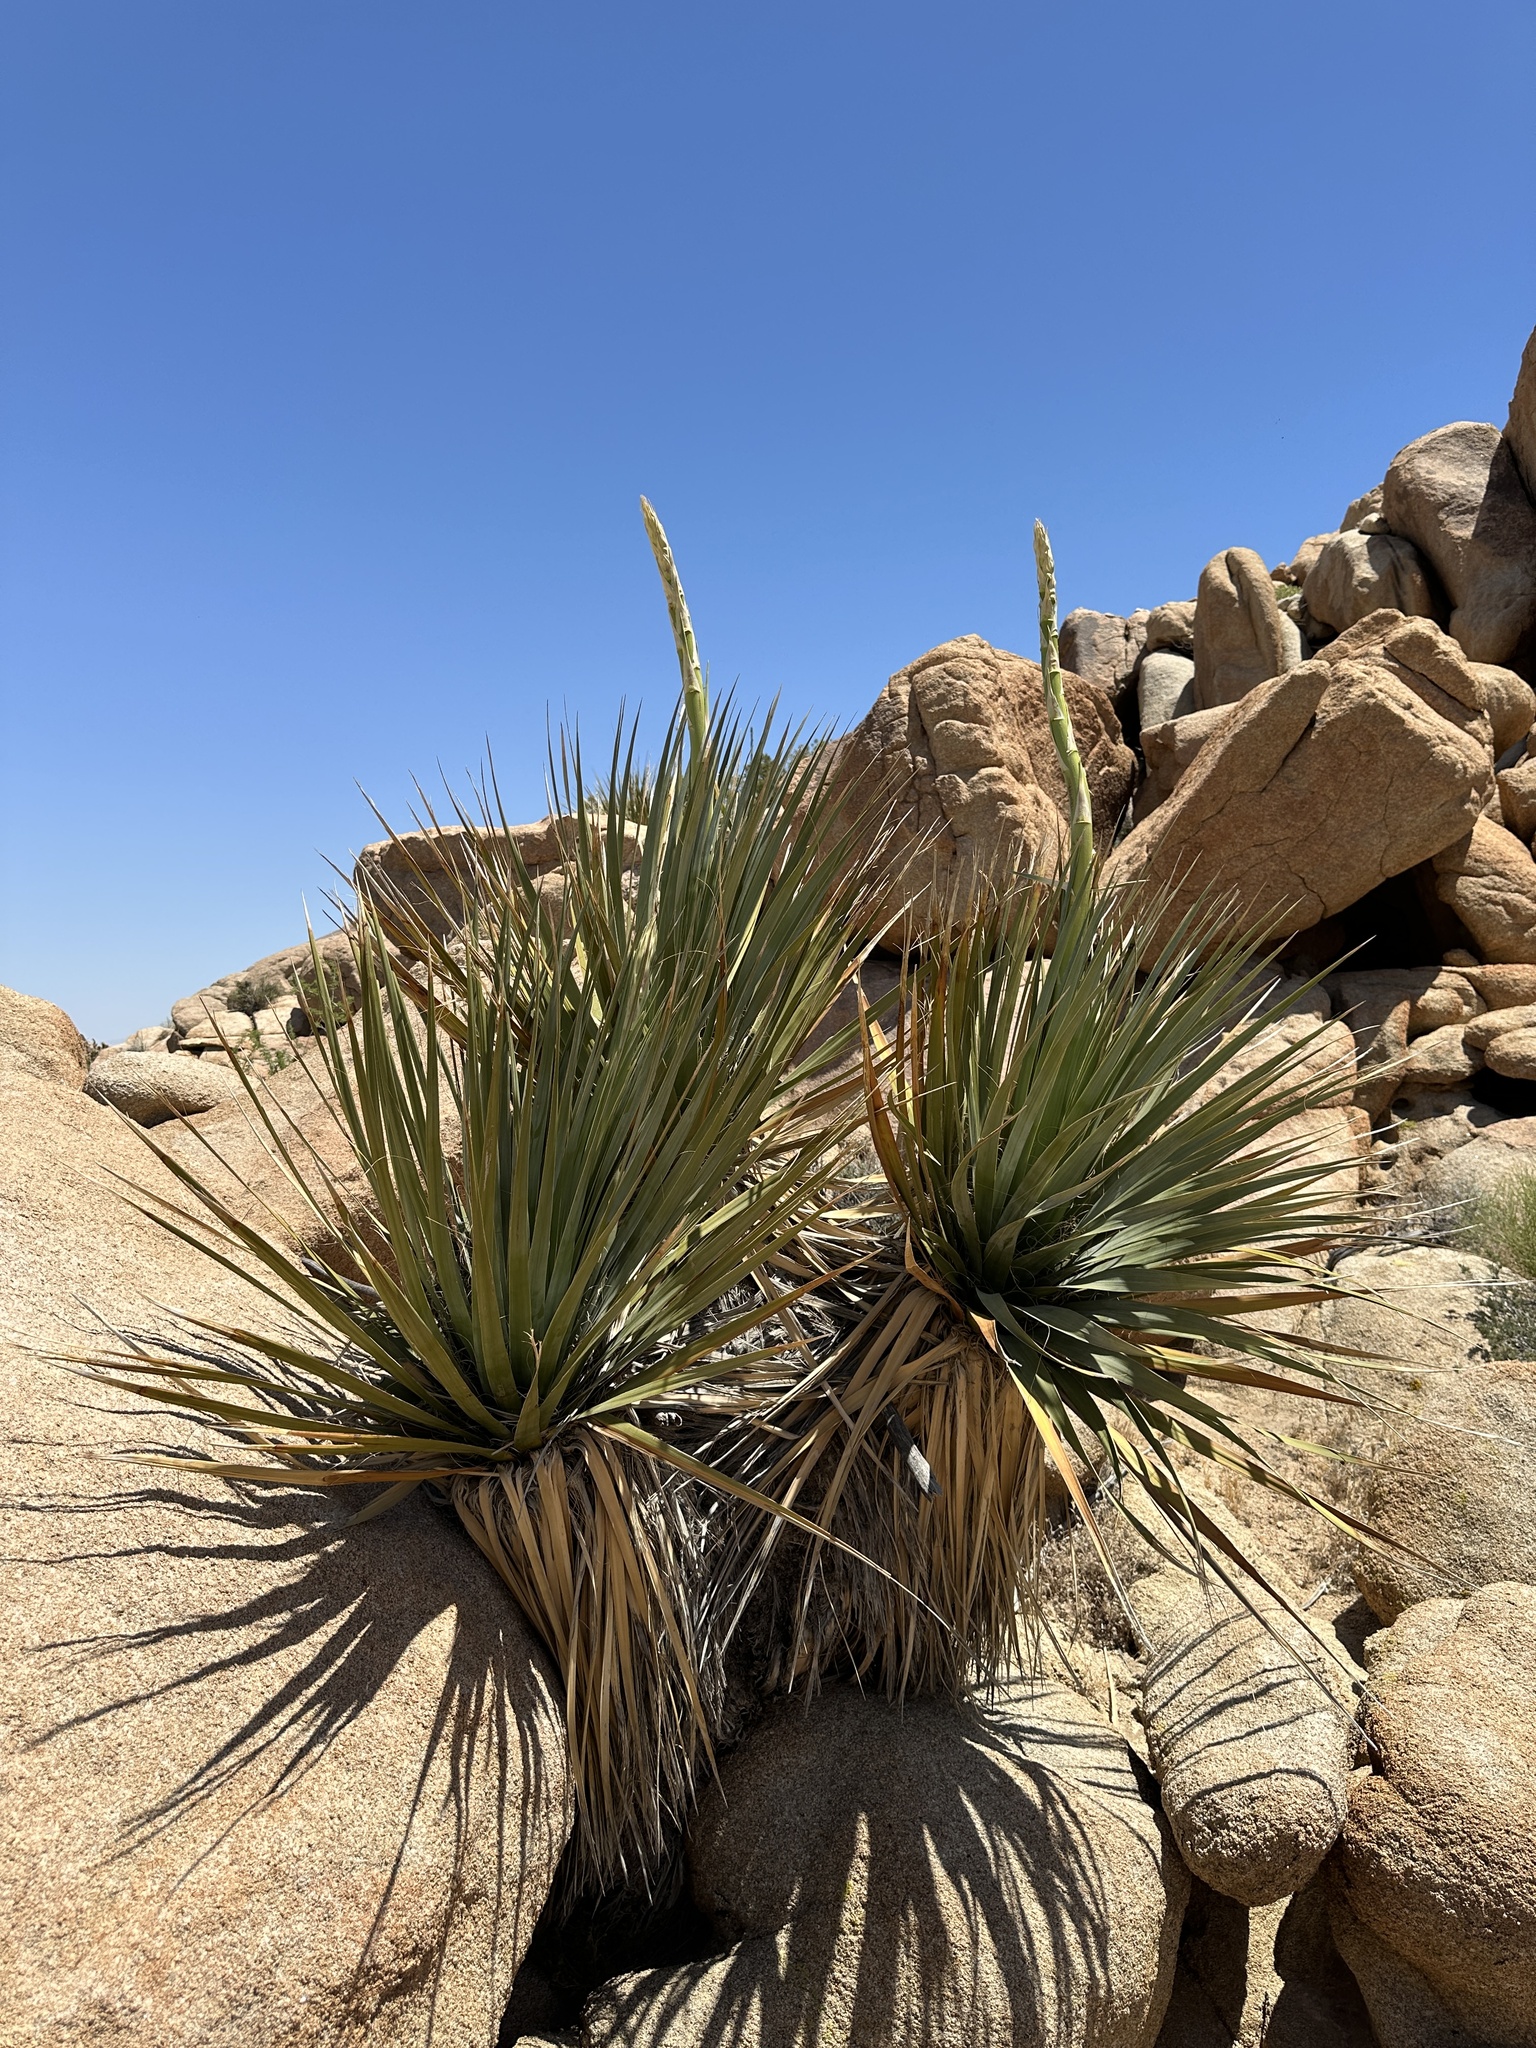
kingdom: Plantae
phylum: Tracheophyta
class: Liliopsida
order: Asparagales
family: Asparagaceae
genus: Nolina
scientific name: Nolina bigelovii
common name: Bigelow bear-grass
